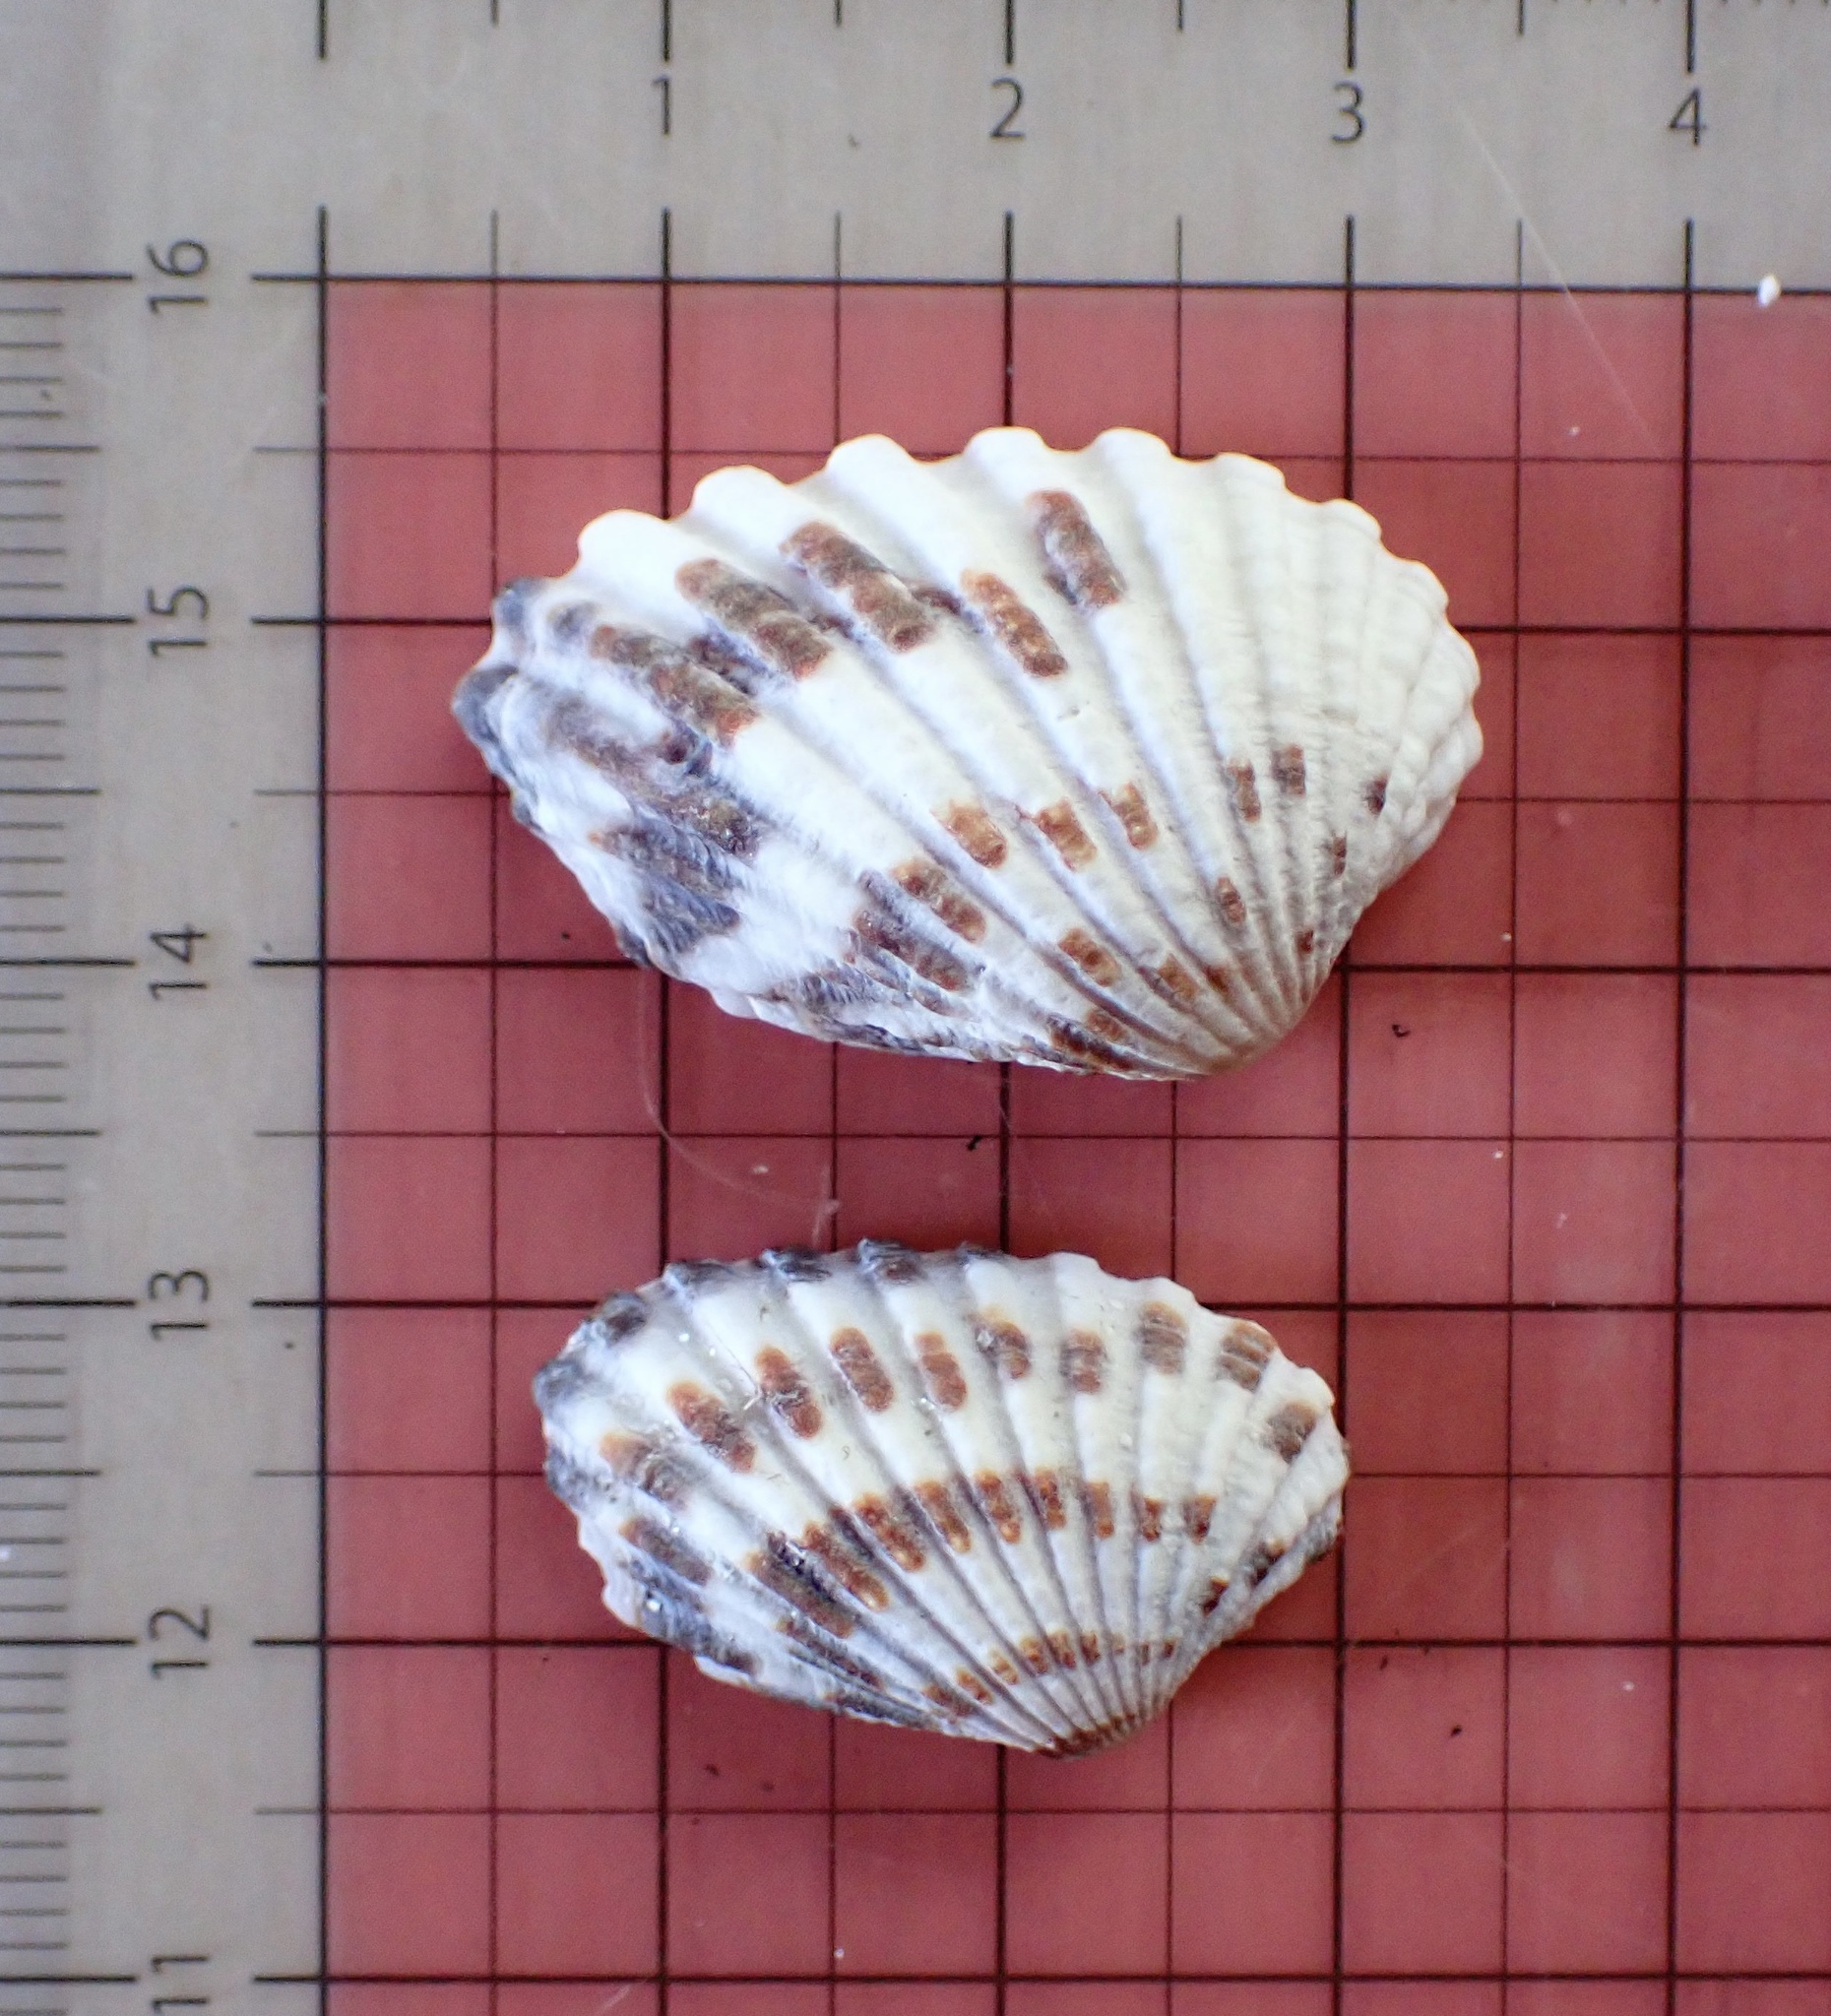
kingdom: Animalia
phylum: Mollusca
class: Bivalvia
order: Carditida
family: Carditidae
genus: Cardites
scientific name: Cardites floridanus
